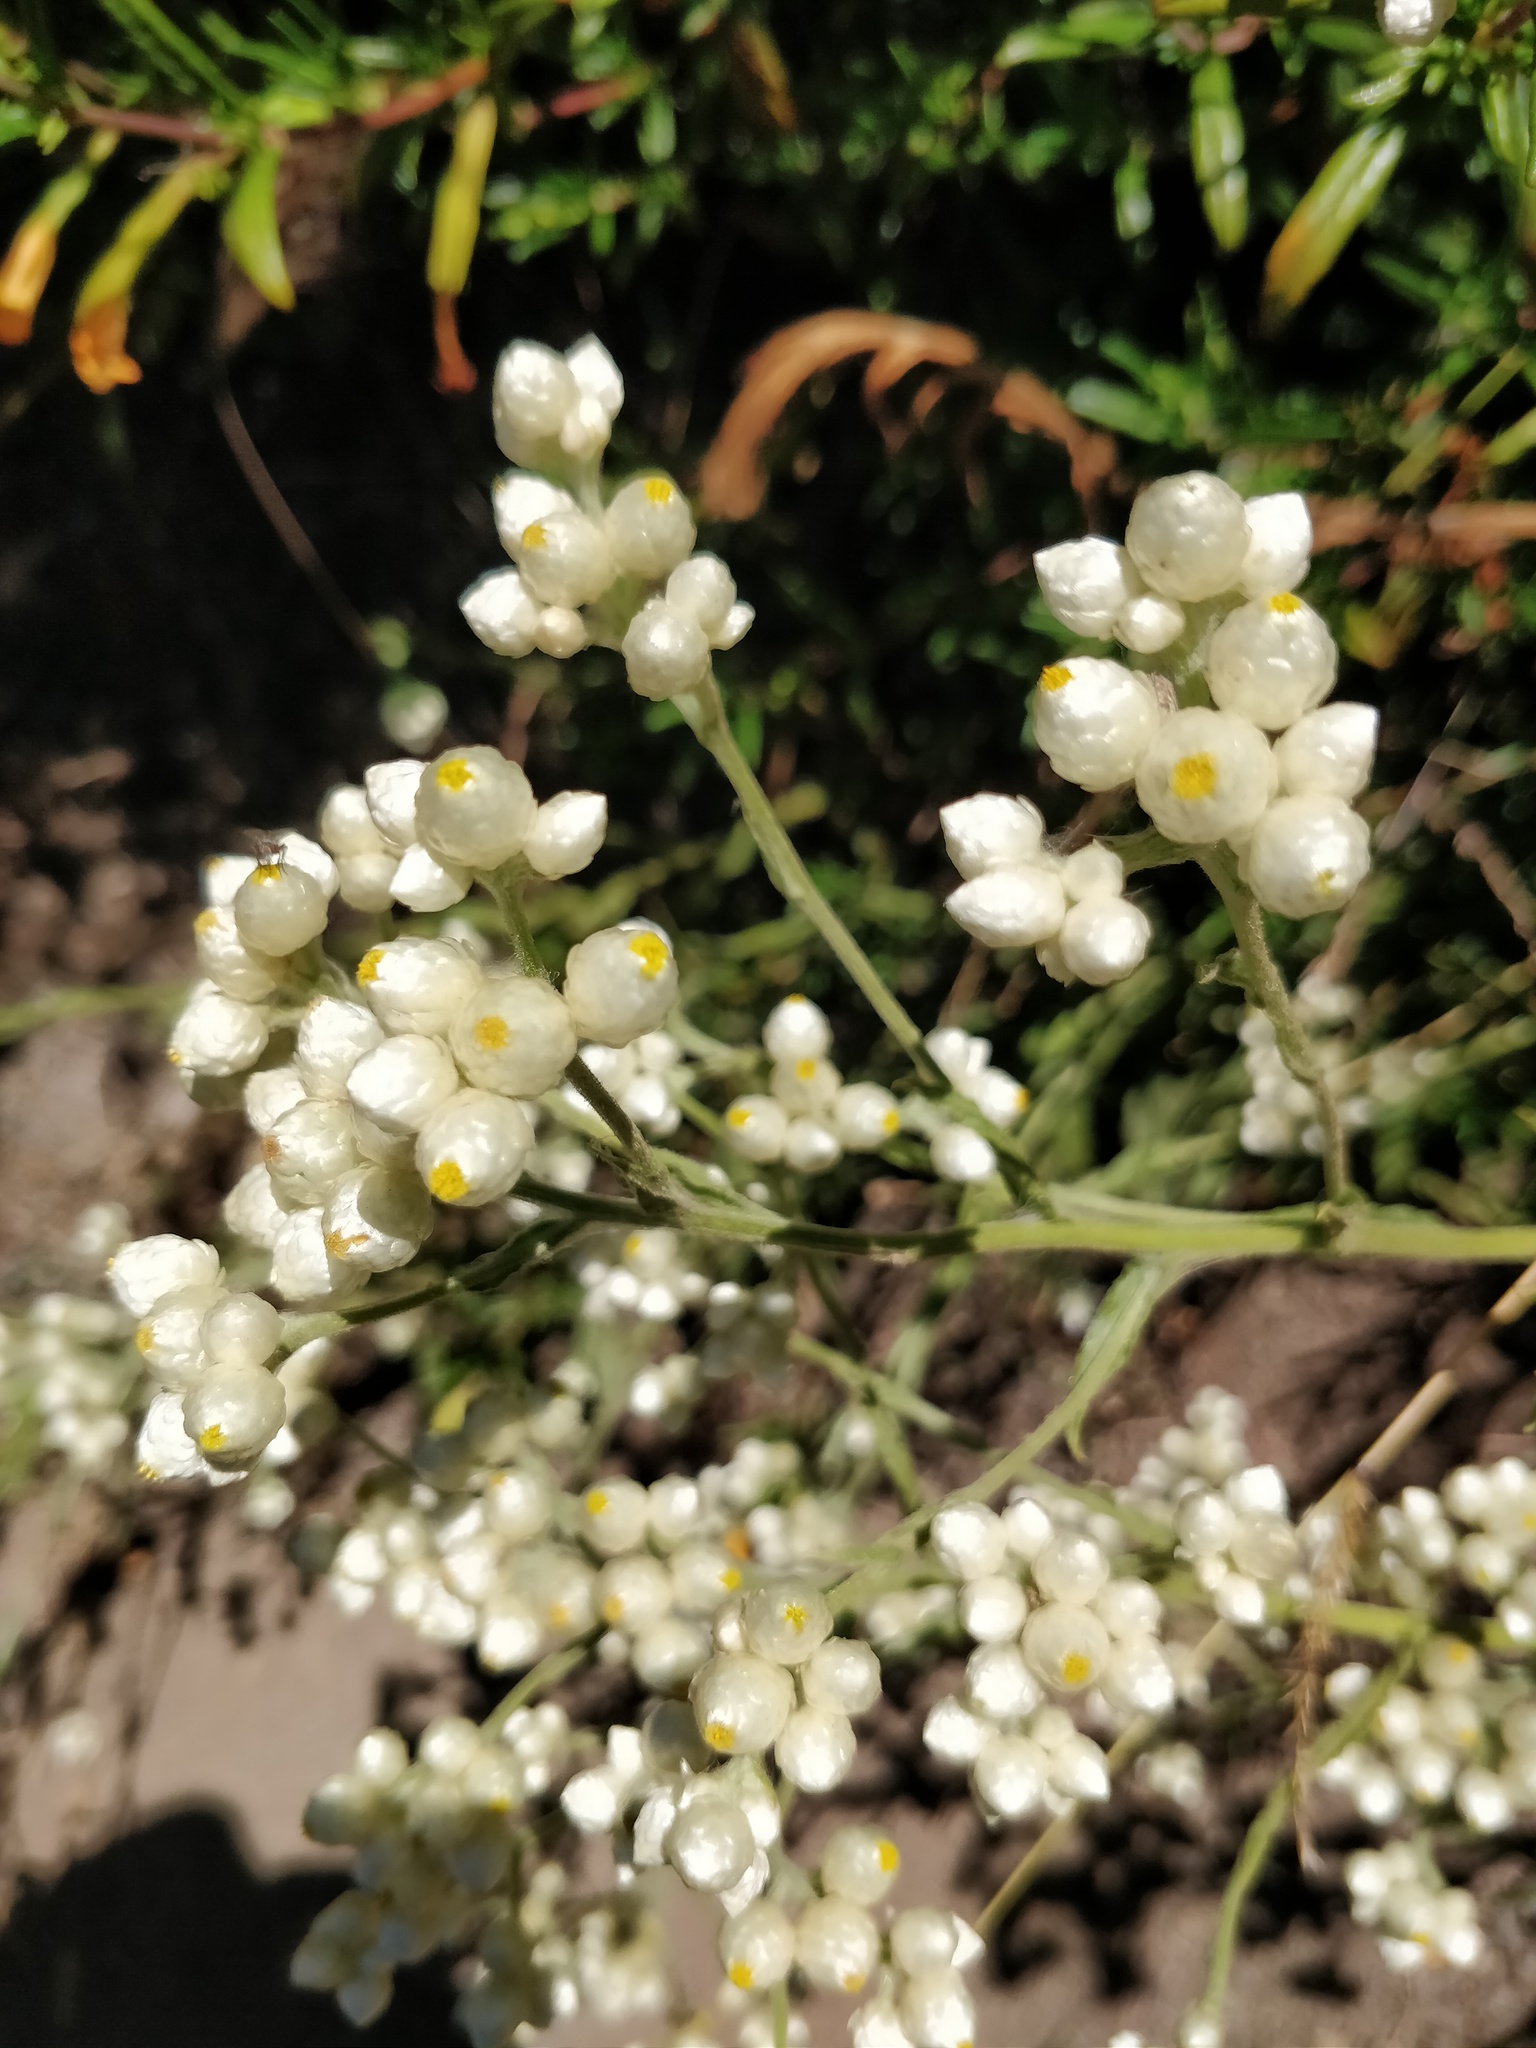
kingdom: Plantae
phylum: Tracheophyta
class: Magnoliopsida
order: Asterales
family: Asteraceae
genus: Pseudognaphalium
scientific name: Pseudognaphalium californicum
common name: California rabbit-tobacco
